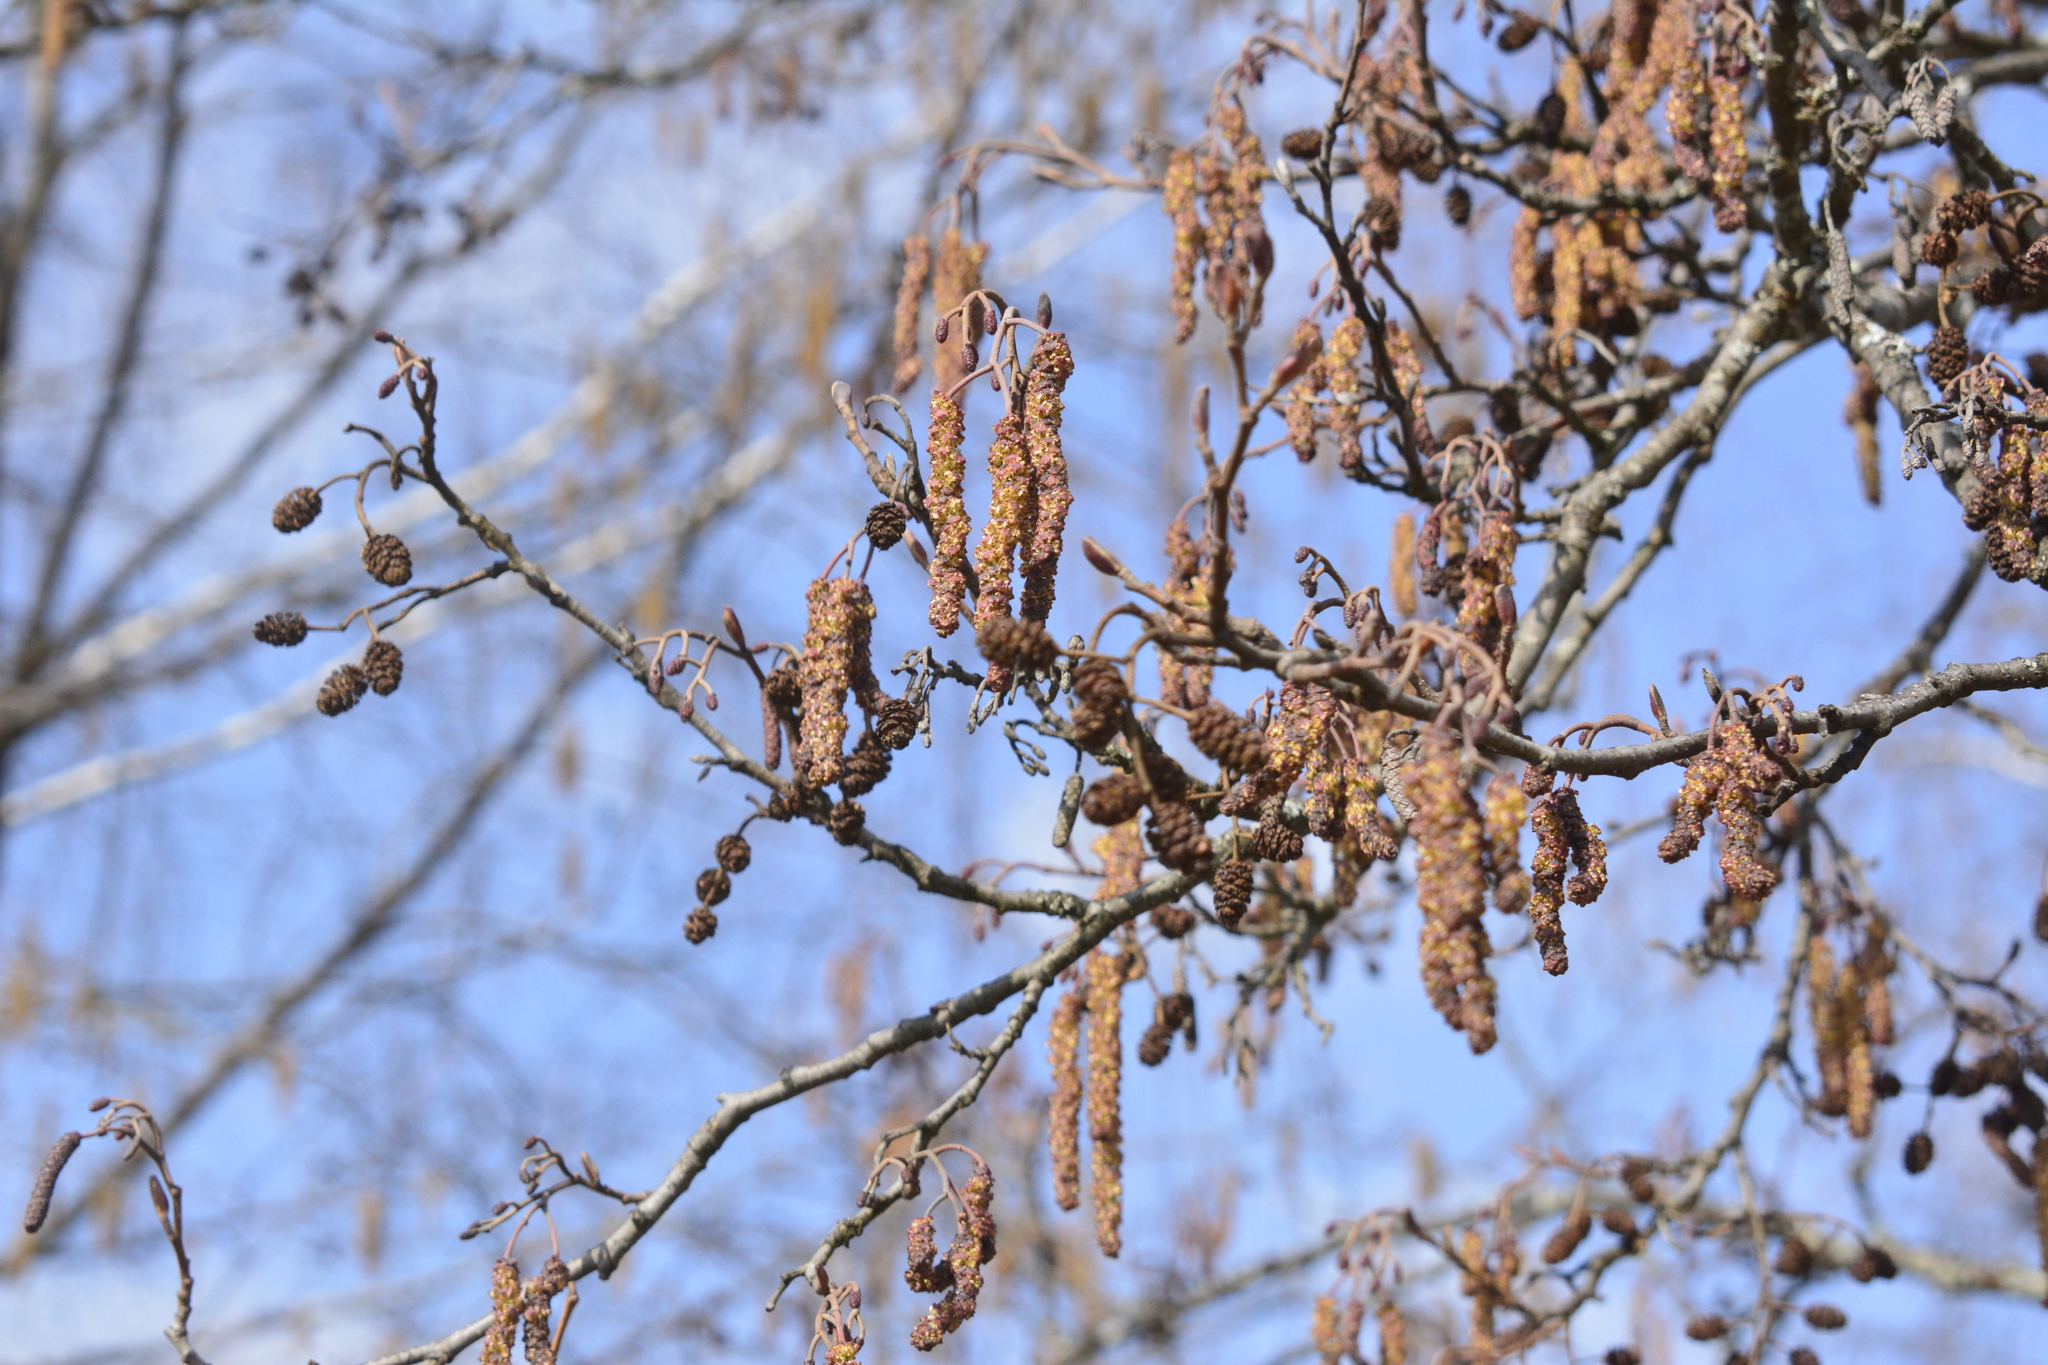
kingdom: Plantae
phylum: Tracheophyta
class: Magnoliopsida
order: Fagales
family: Betulaceae
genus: Alnus
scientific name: Alnus glutinosa
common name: Black alder
